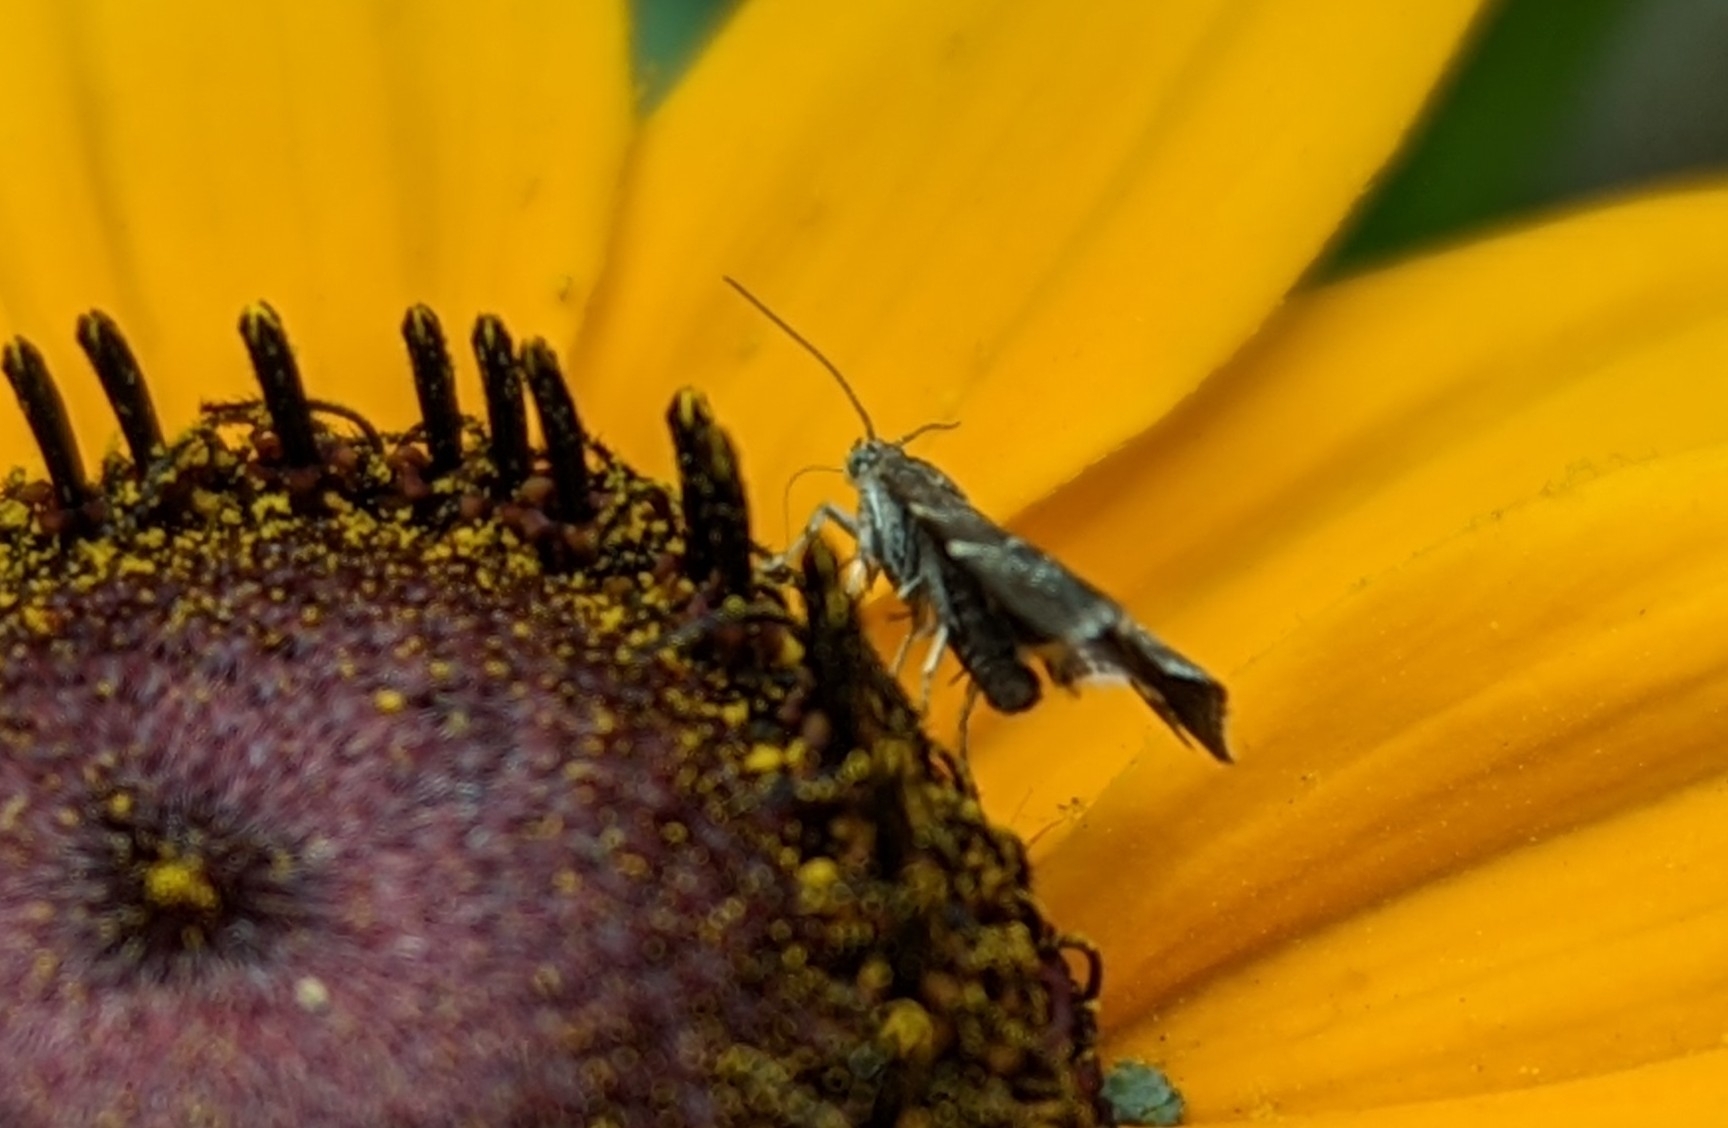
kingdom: Animalia
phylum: Arthropoda
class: Insecta
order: Lepidoptera
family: Choreutidae
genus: Anthophila
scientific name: Anthophila fabriciana
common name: Nettle-tap
